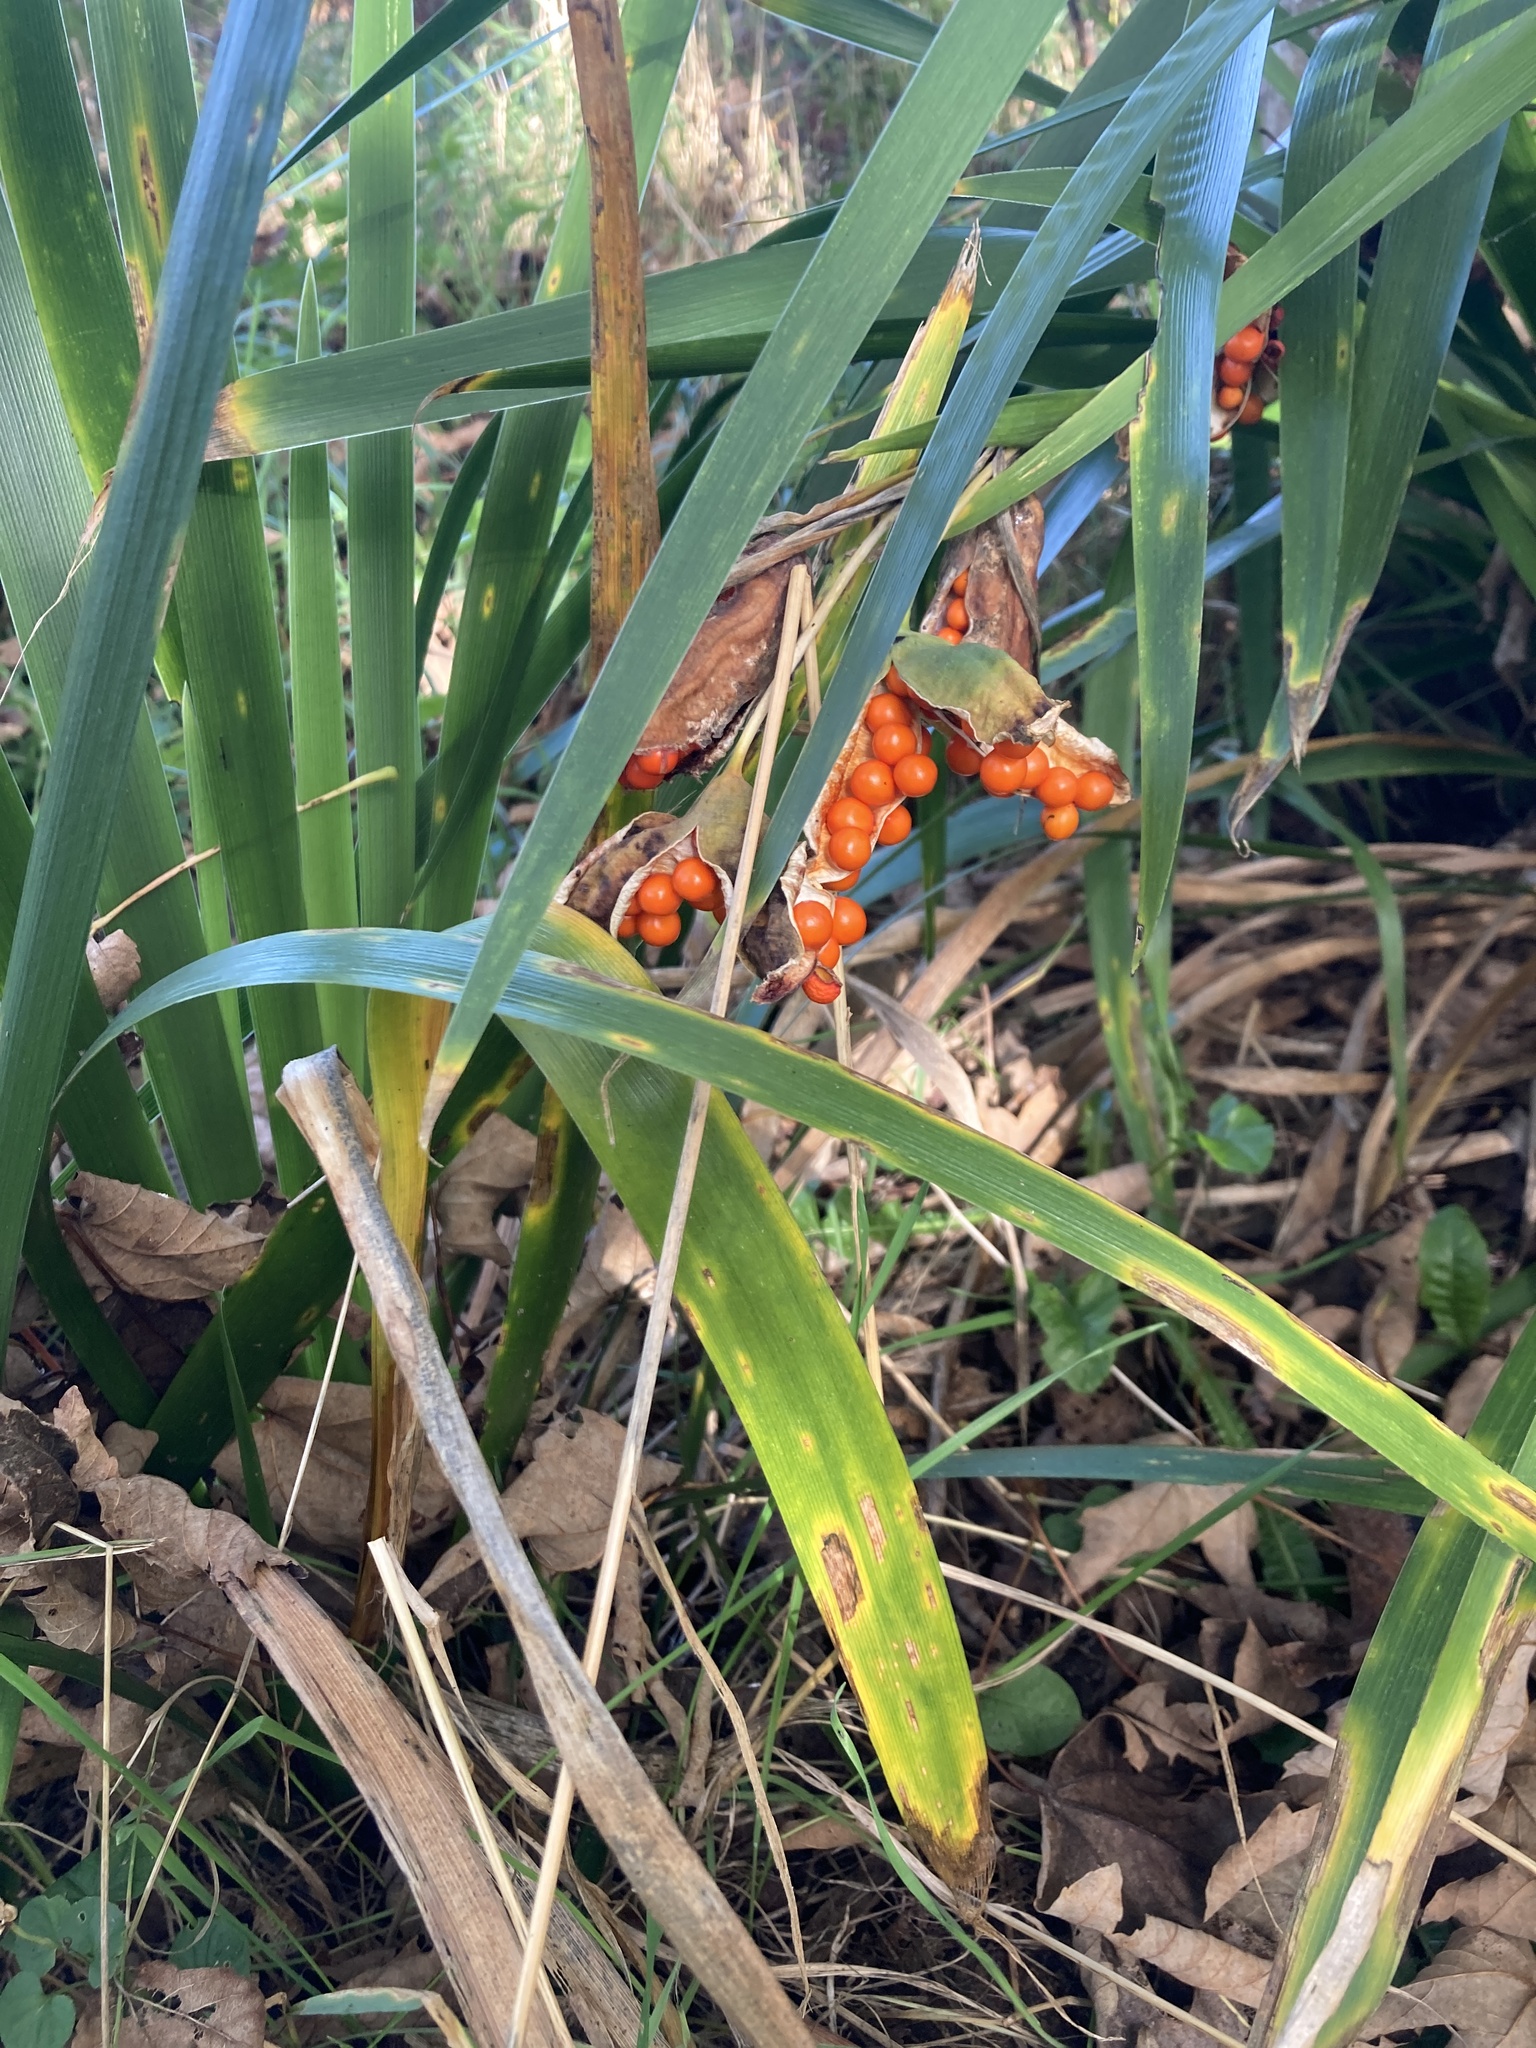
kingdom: Plantae
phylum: Tracheophyta
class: Liliopsida
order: Asparagales
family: Iridaceae
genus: Iris
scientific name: Iris foetidissima
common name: Stinking iris
